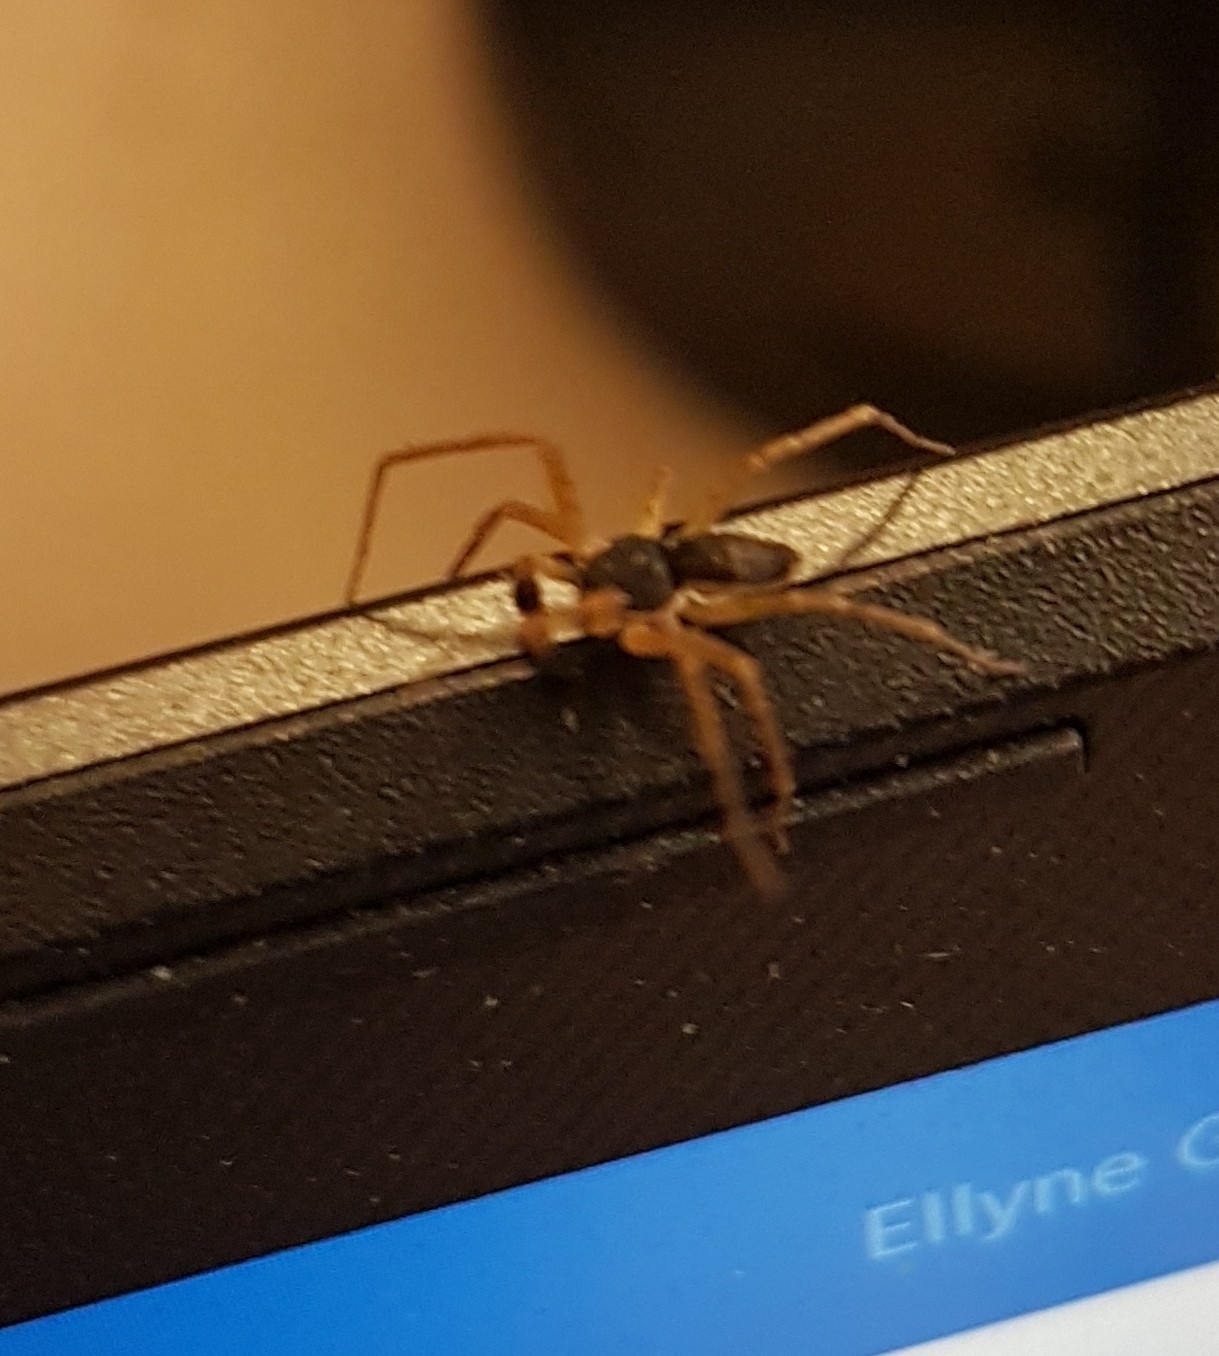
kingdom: Animalia
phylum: Arthropoda
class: Arachnida
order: Araneae
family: Philodromidae
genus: Philodromus
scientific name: Philodromus dispar
